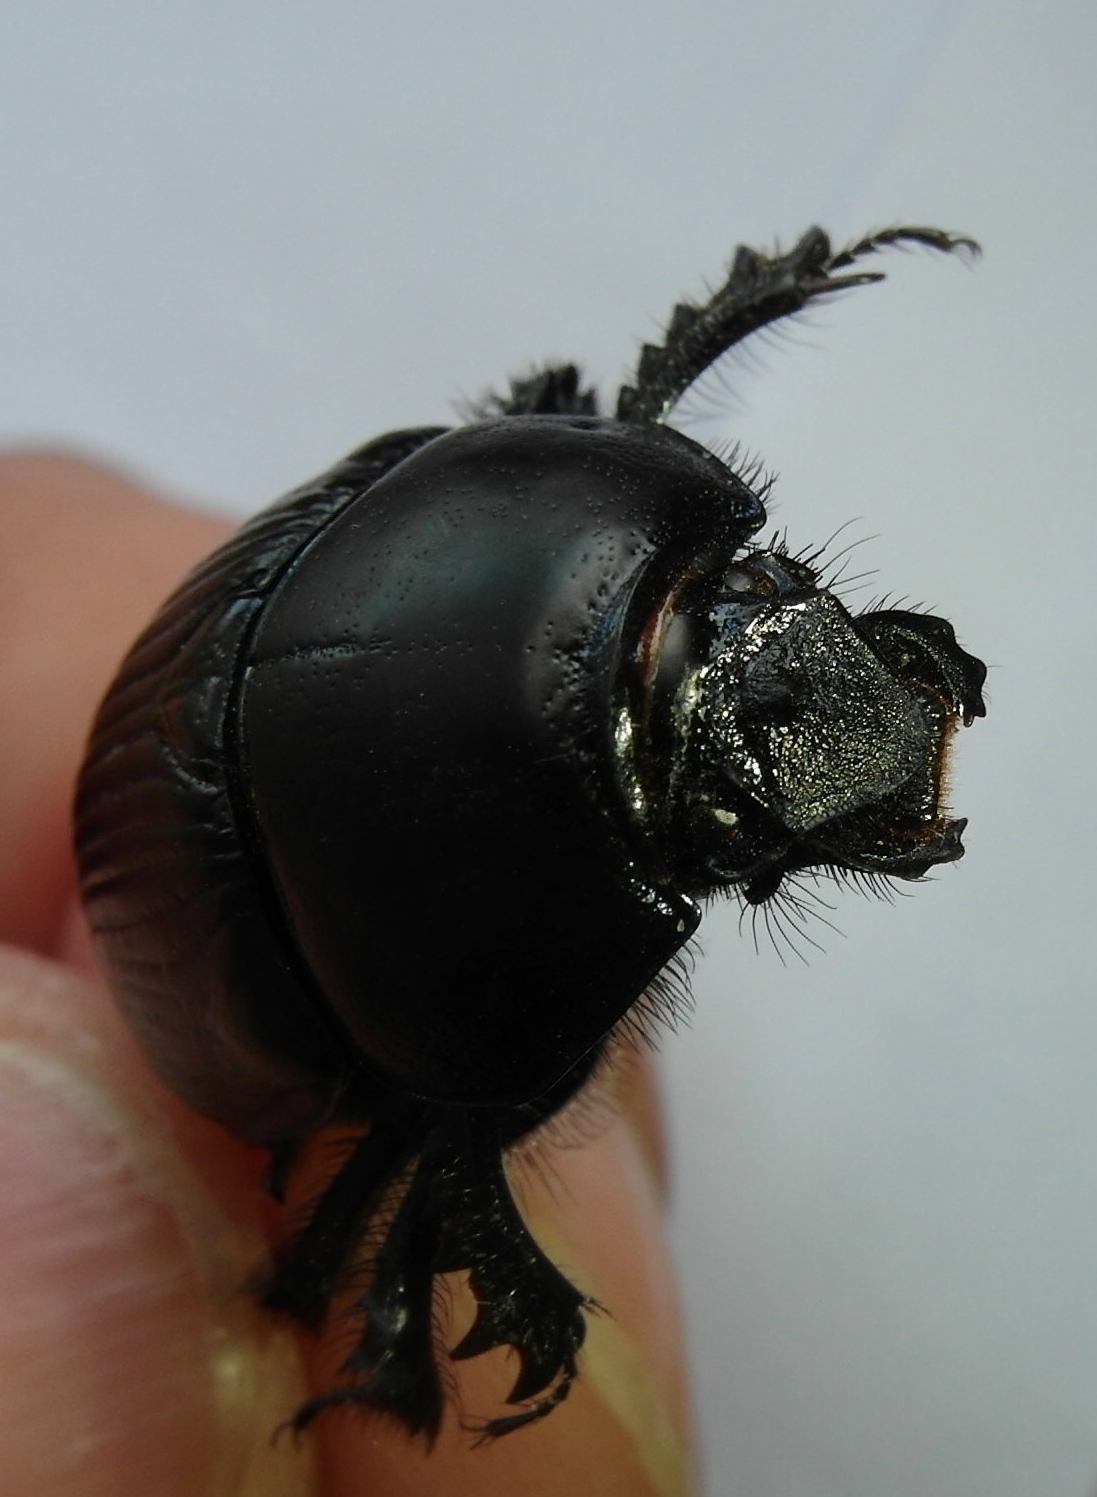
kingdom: Animalia
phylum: Arthropoda
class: Insecta
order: Coleoptera
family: Geotrupidae
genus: Geotrupes
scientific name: Geotrupes spiniger
